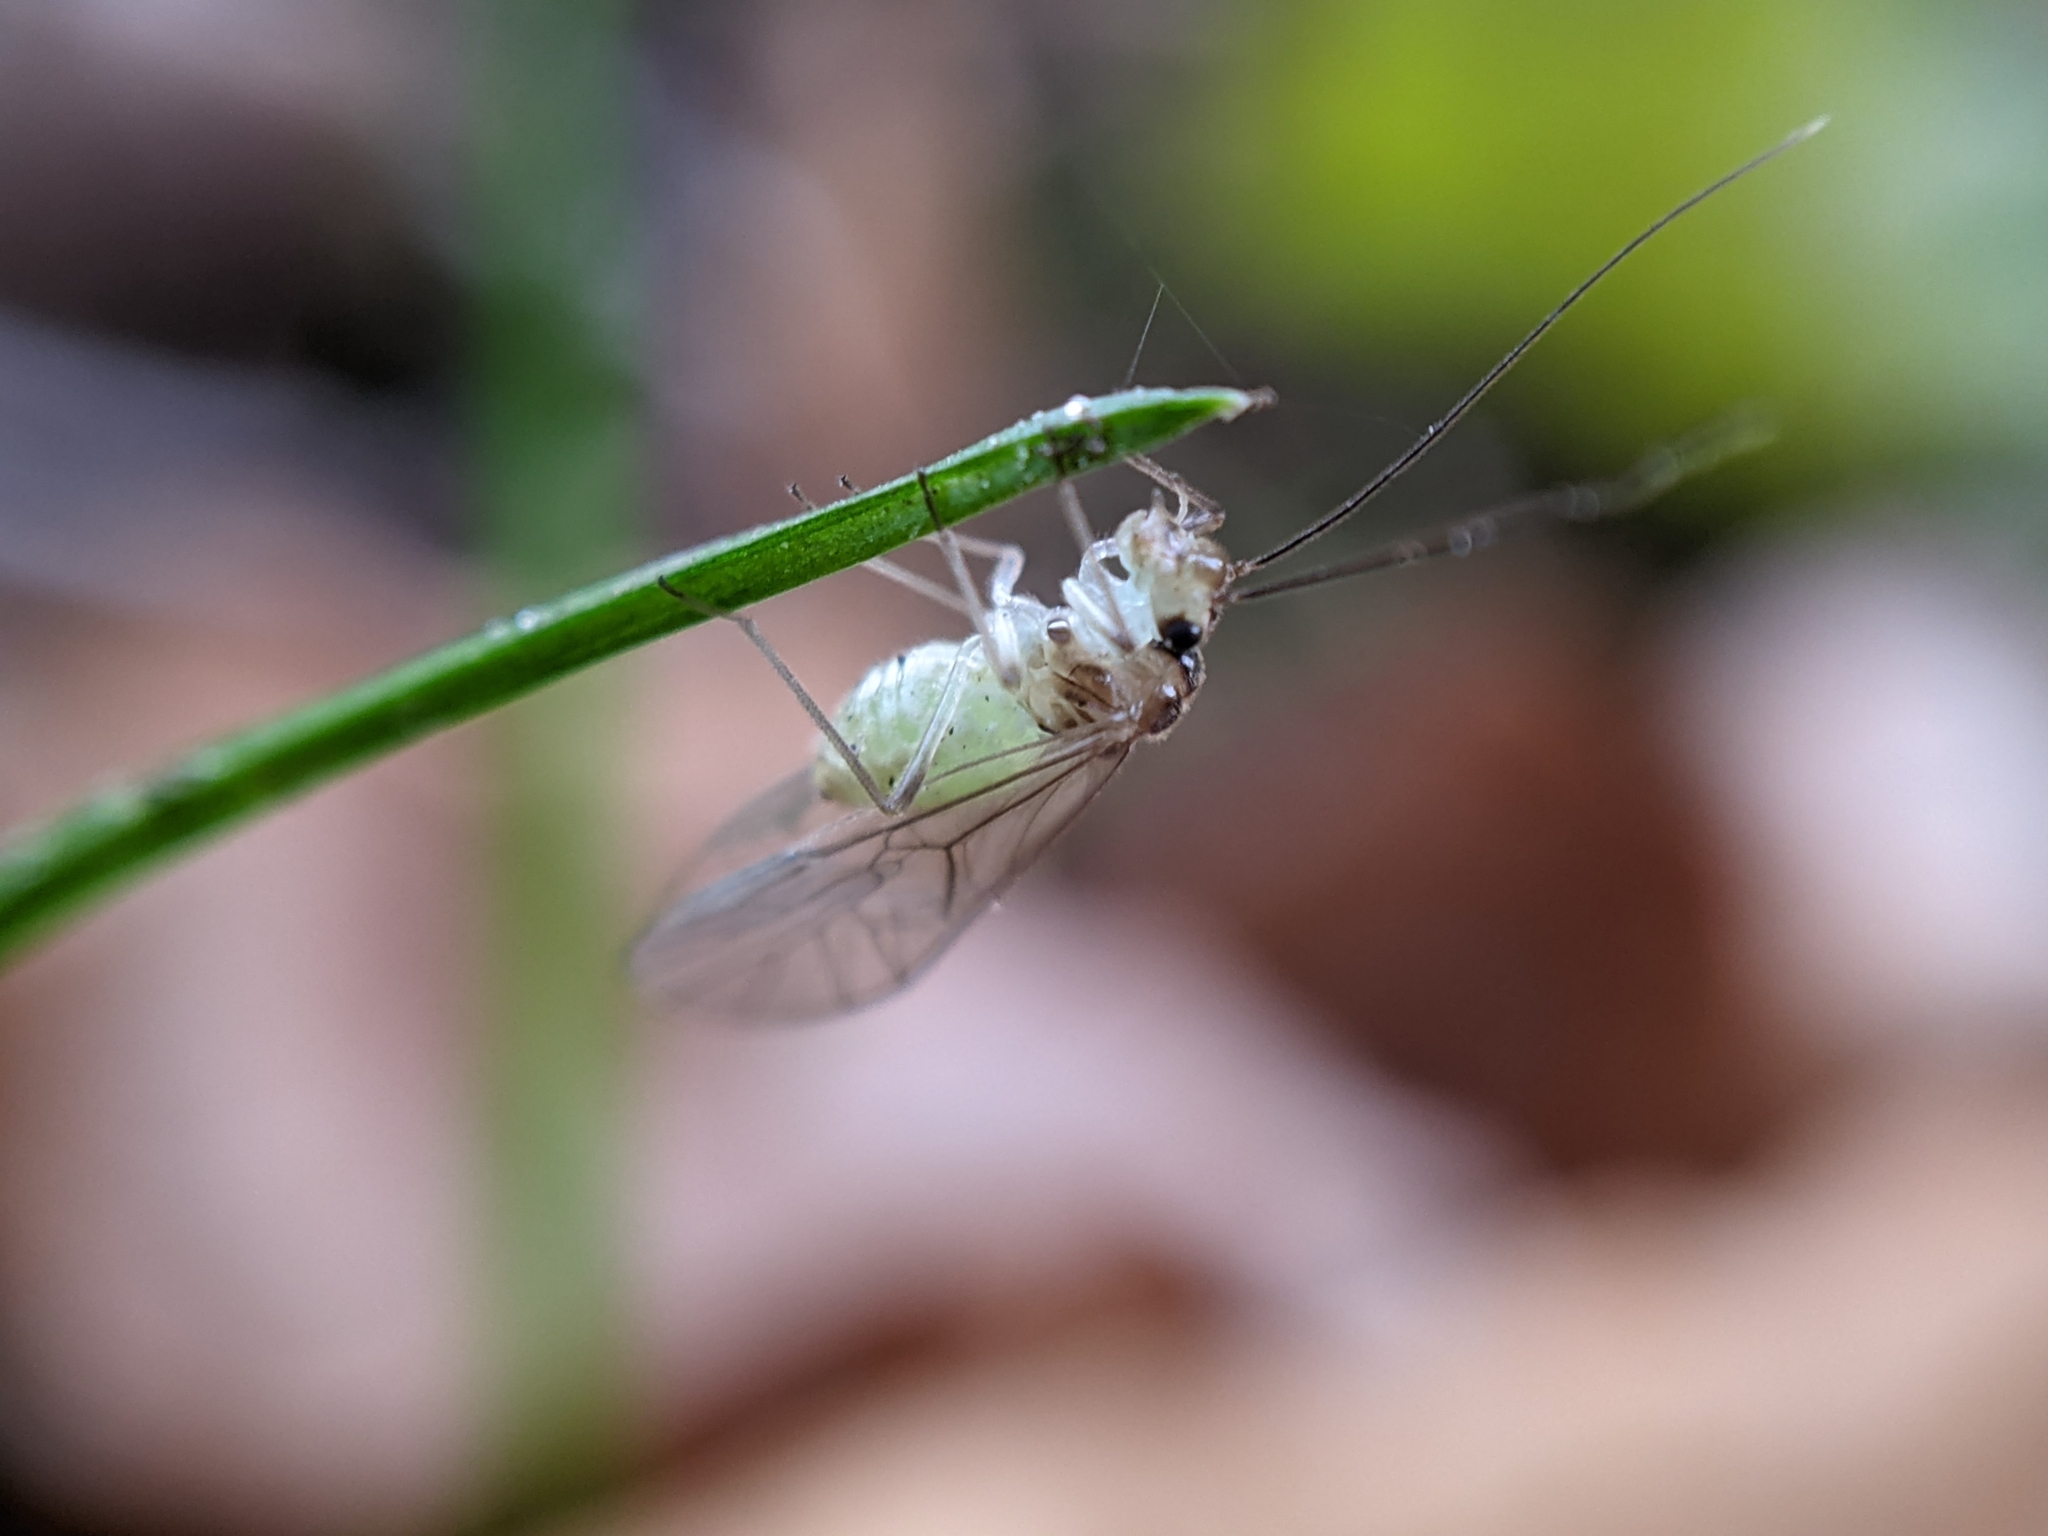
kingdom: Animalia
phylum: Arthropoda
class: Insecta
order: Psocodea
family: Stenopsocidae
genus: Stenopsocus
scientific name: Stenopsocus immaculatus
